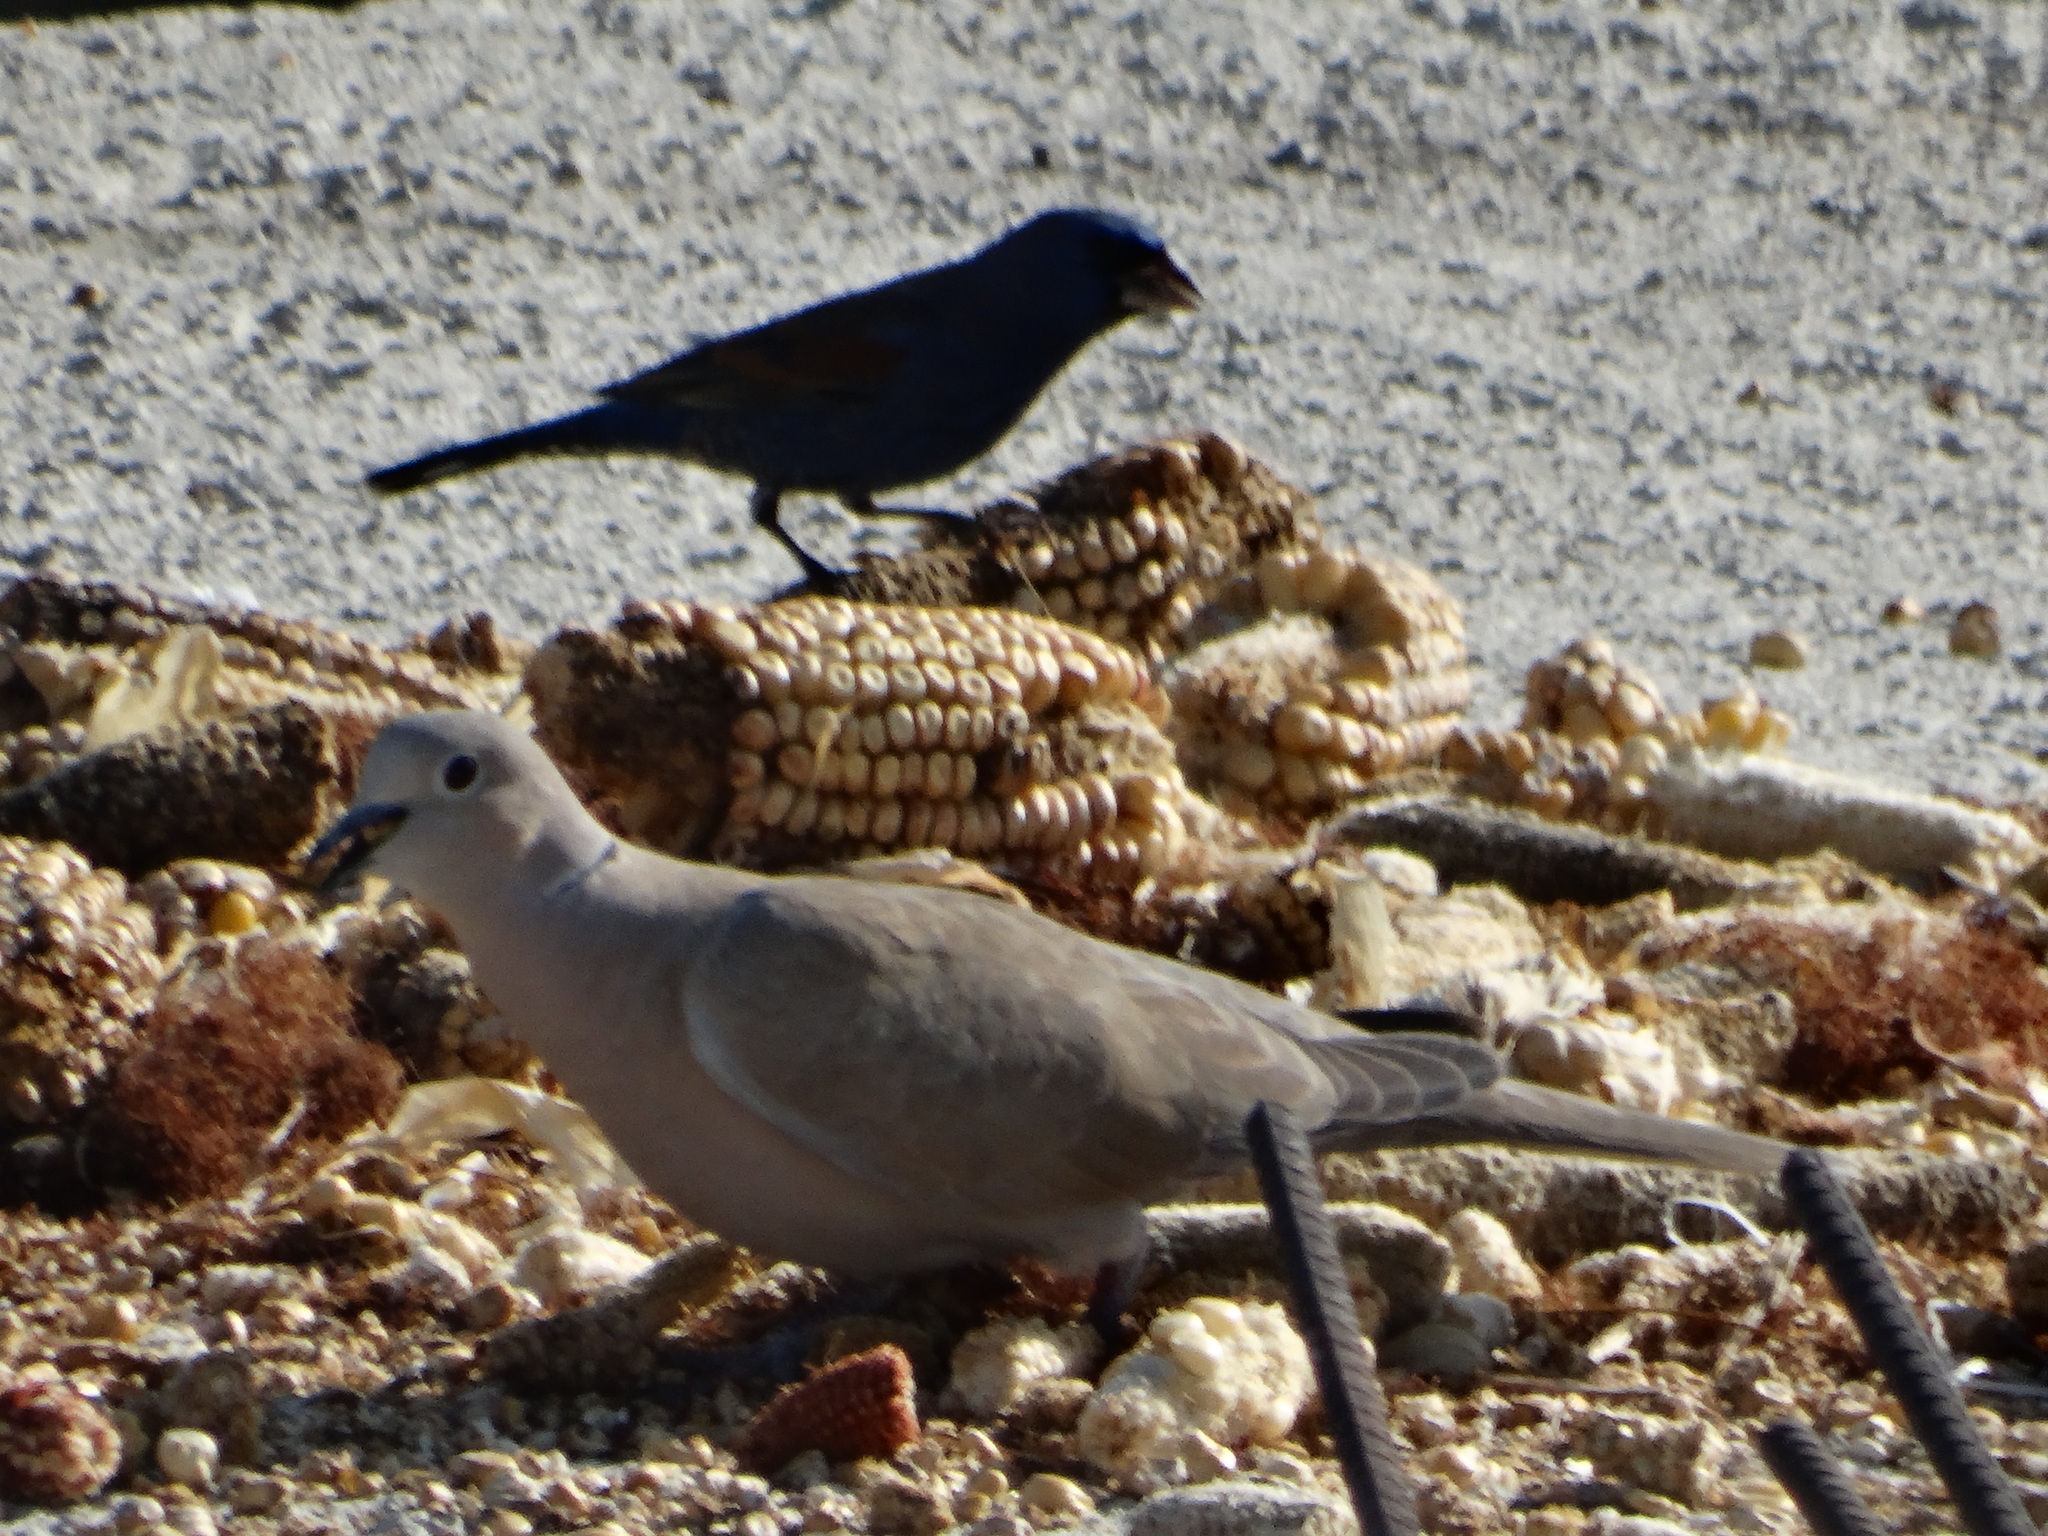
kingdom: Animalia
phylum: Chordata
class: Aves
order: Columbiformes
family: Columbidae
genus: Streptopelia
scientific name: Streptopelia decaocto
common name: Eurasian collared dove
